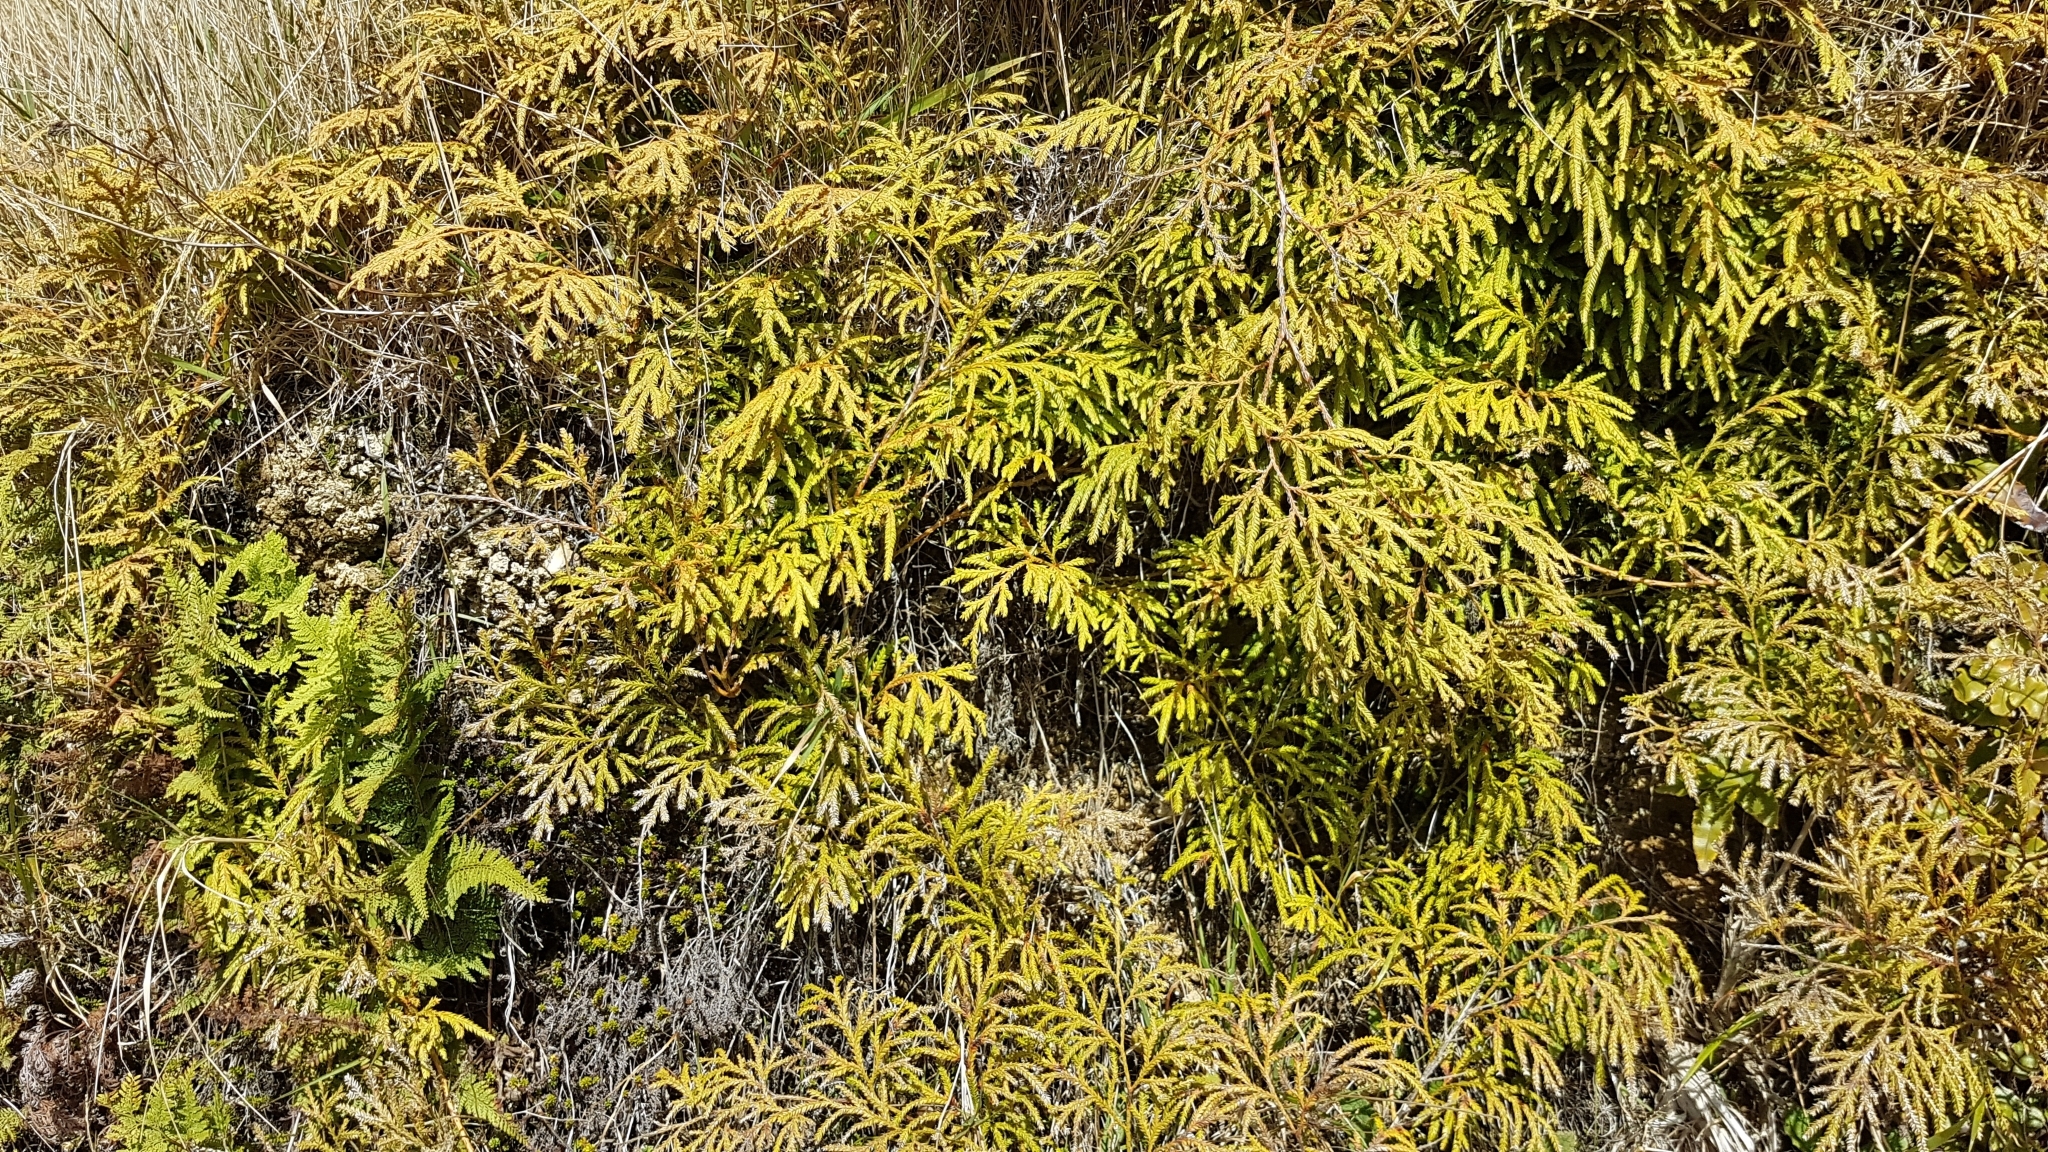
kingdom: Plantae
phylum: Tracheophyta
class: Lycopodiopsida
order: Lycopodiales
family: Lycopodiaceae
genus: Lycopodium
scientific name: Lycopodium volubile
